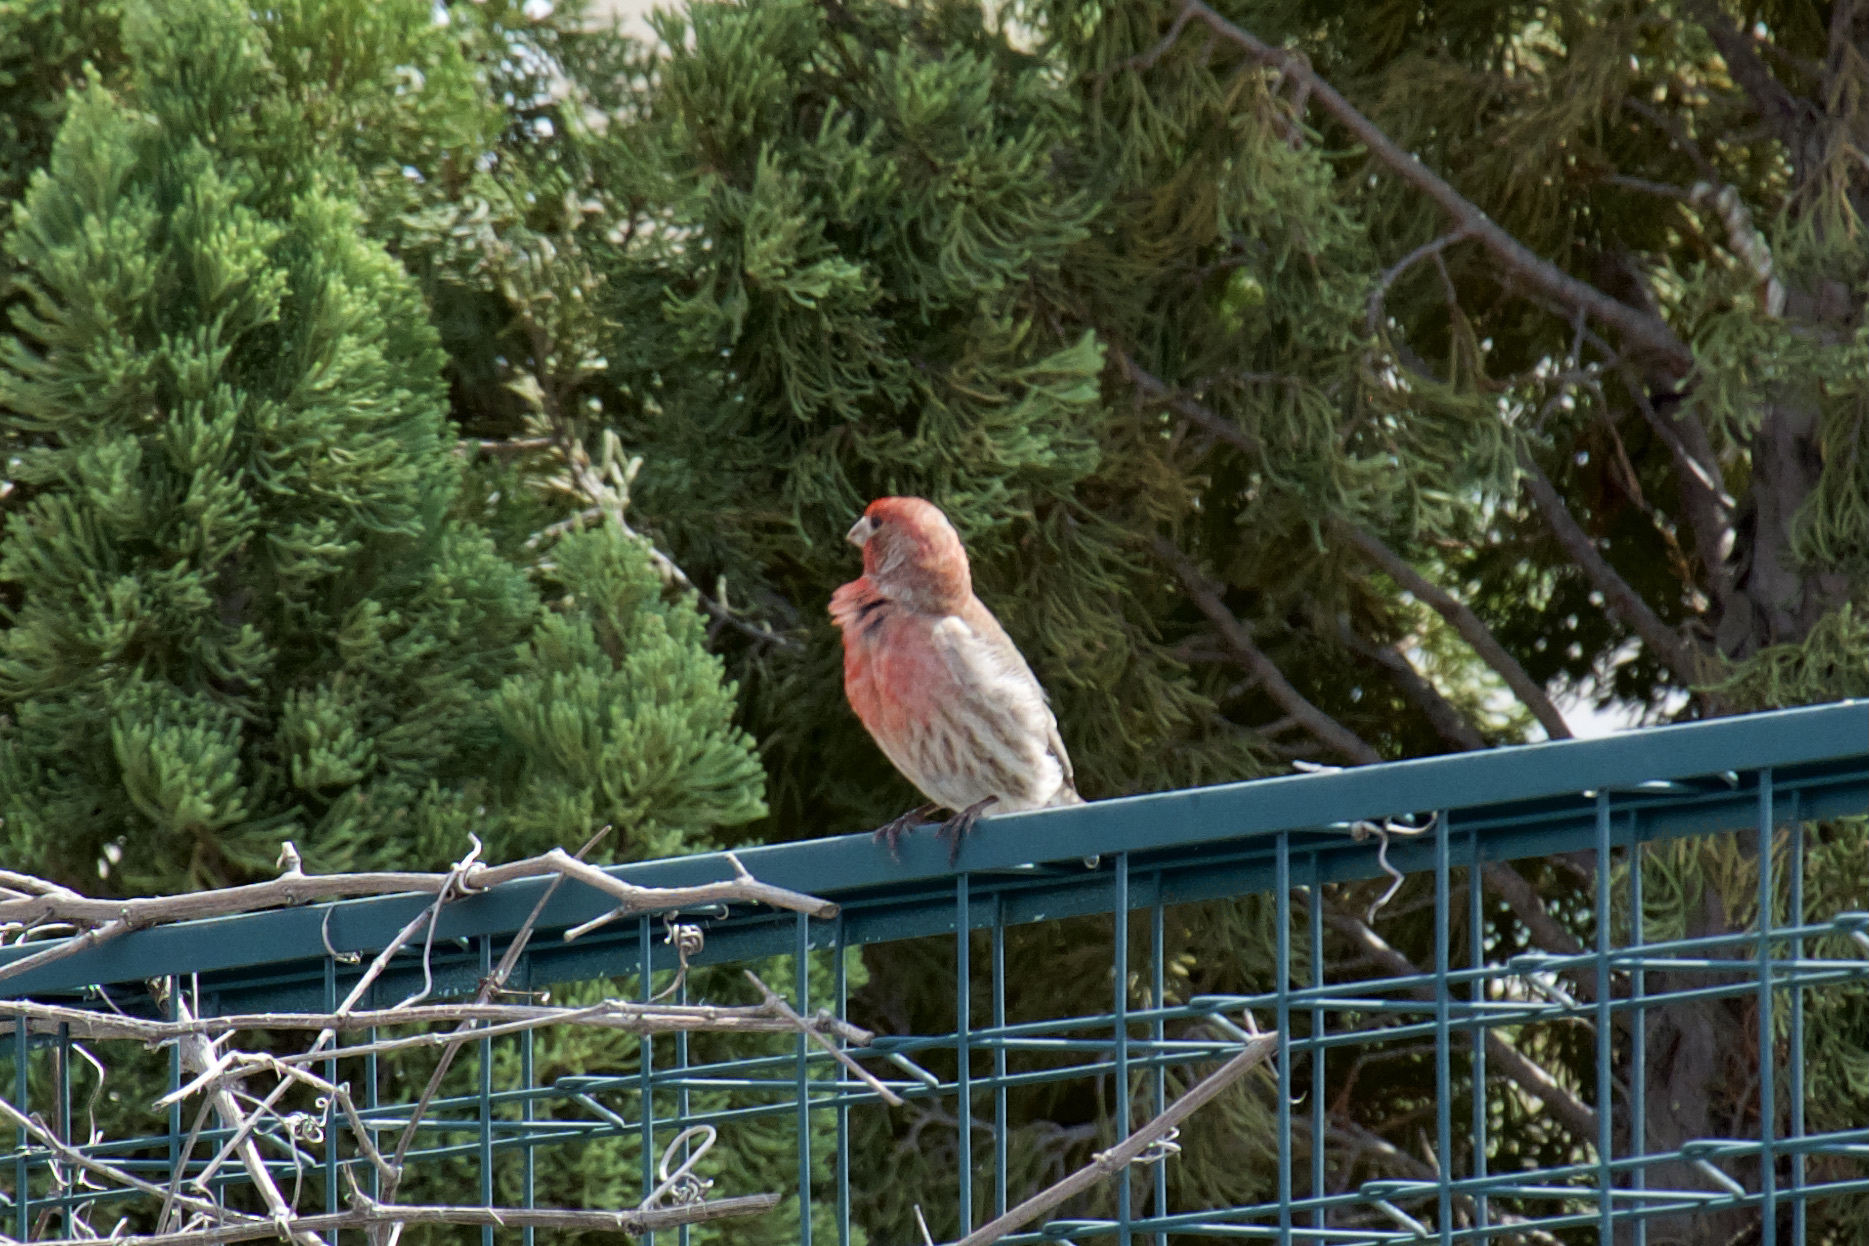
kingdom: Animalia
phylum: Chordata
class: Aves
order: Passeriformes
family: Fringillidae
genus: Haemorhous
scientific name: Haemorhous mexicanus
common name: House finch
